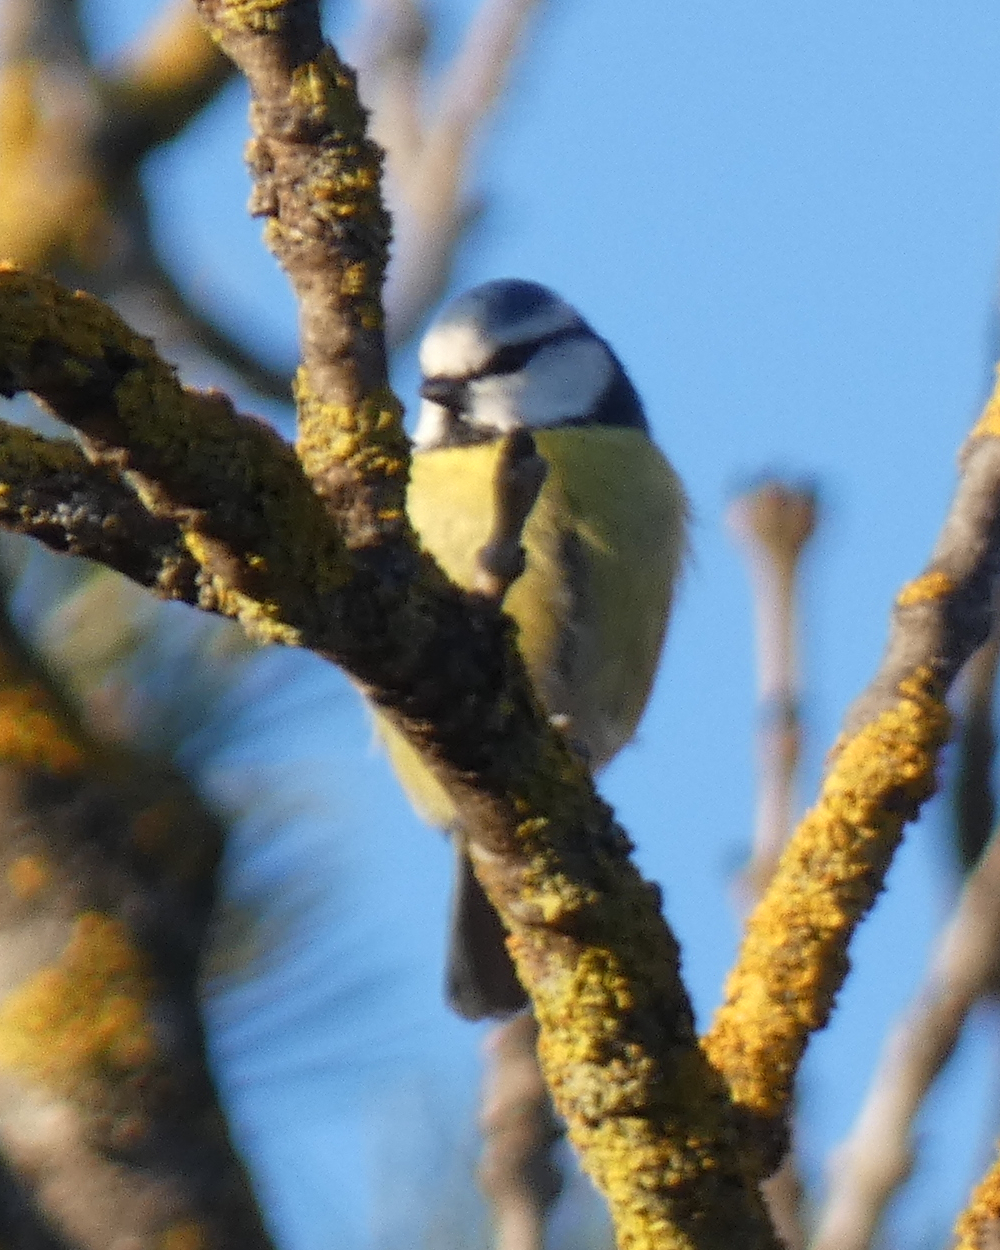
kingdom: Animalia
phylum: Chordata
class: Aves
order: Passeriformes
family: Paridae
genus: Cyanistes
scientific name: Cyanistes caeruleus
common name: Eurasian blue tit
